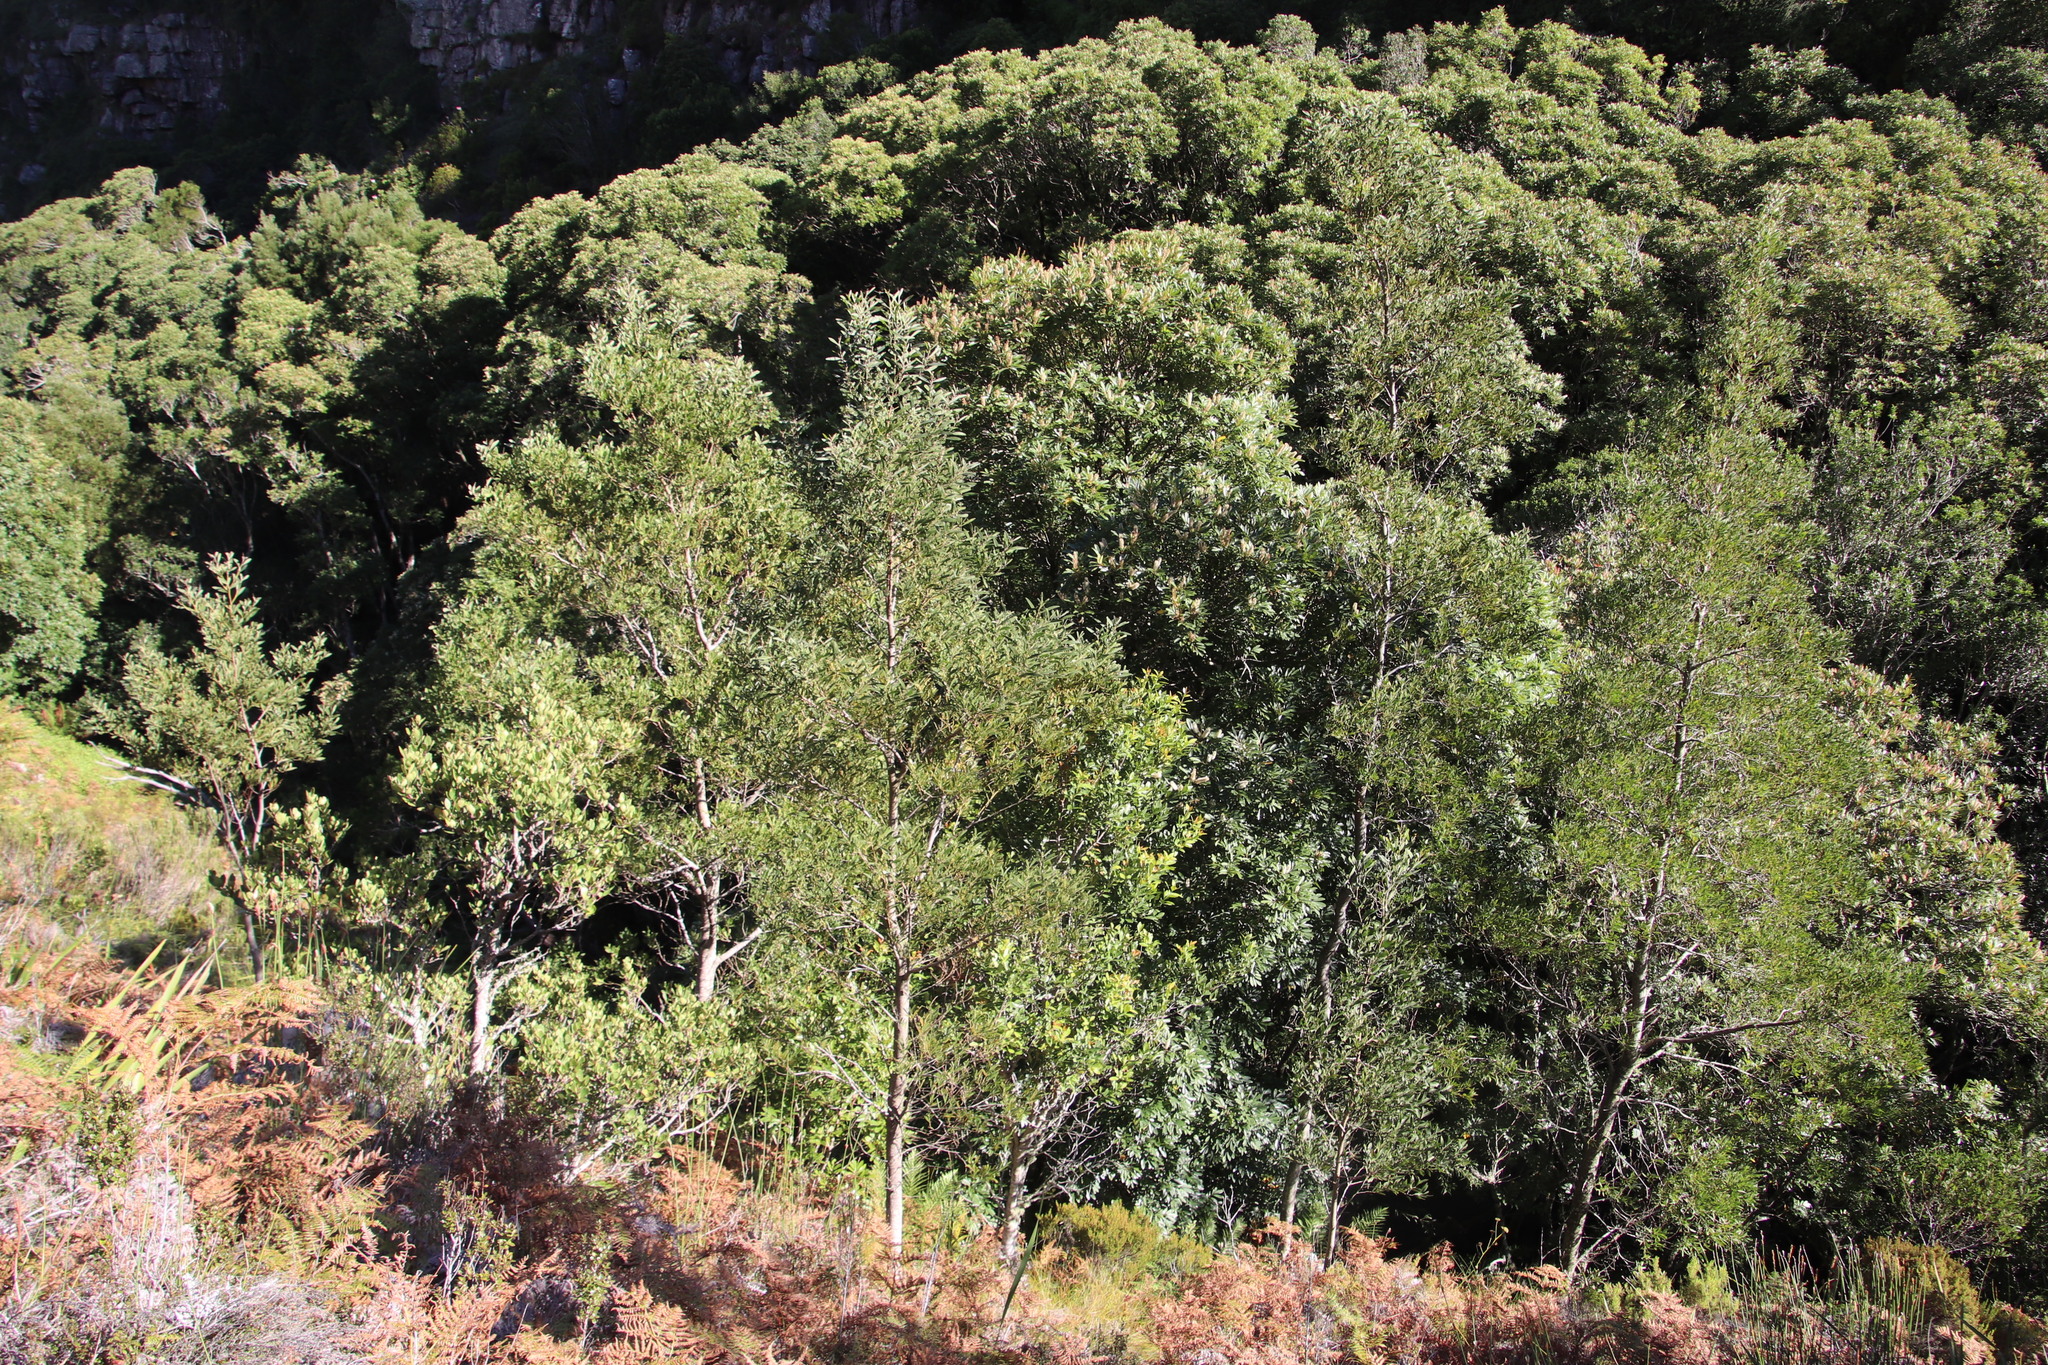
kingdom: Plantae
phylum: Tracheophyta
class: Magnoliopsida
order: Fabales
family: Fabaceae
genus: Acacia
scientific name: Acacia melanoxylon
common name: Blackwood
